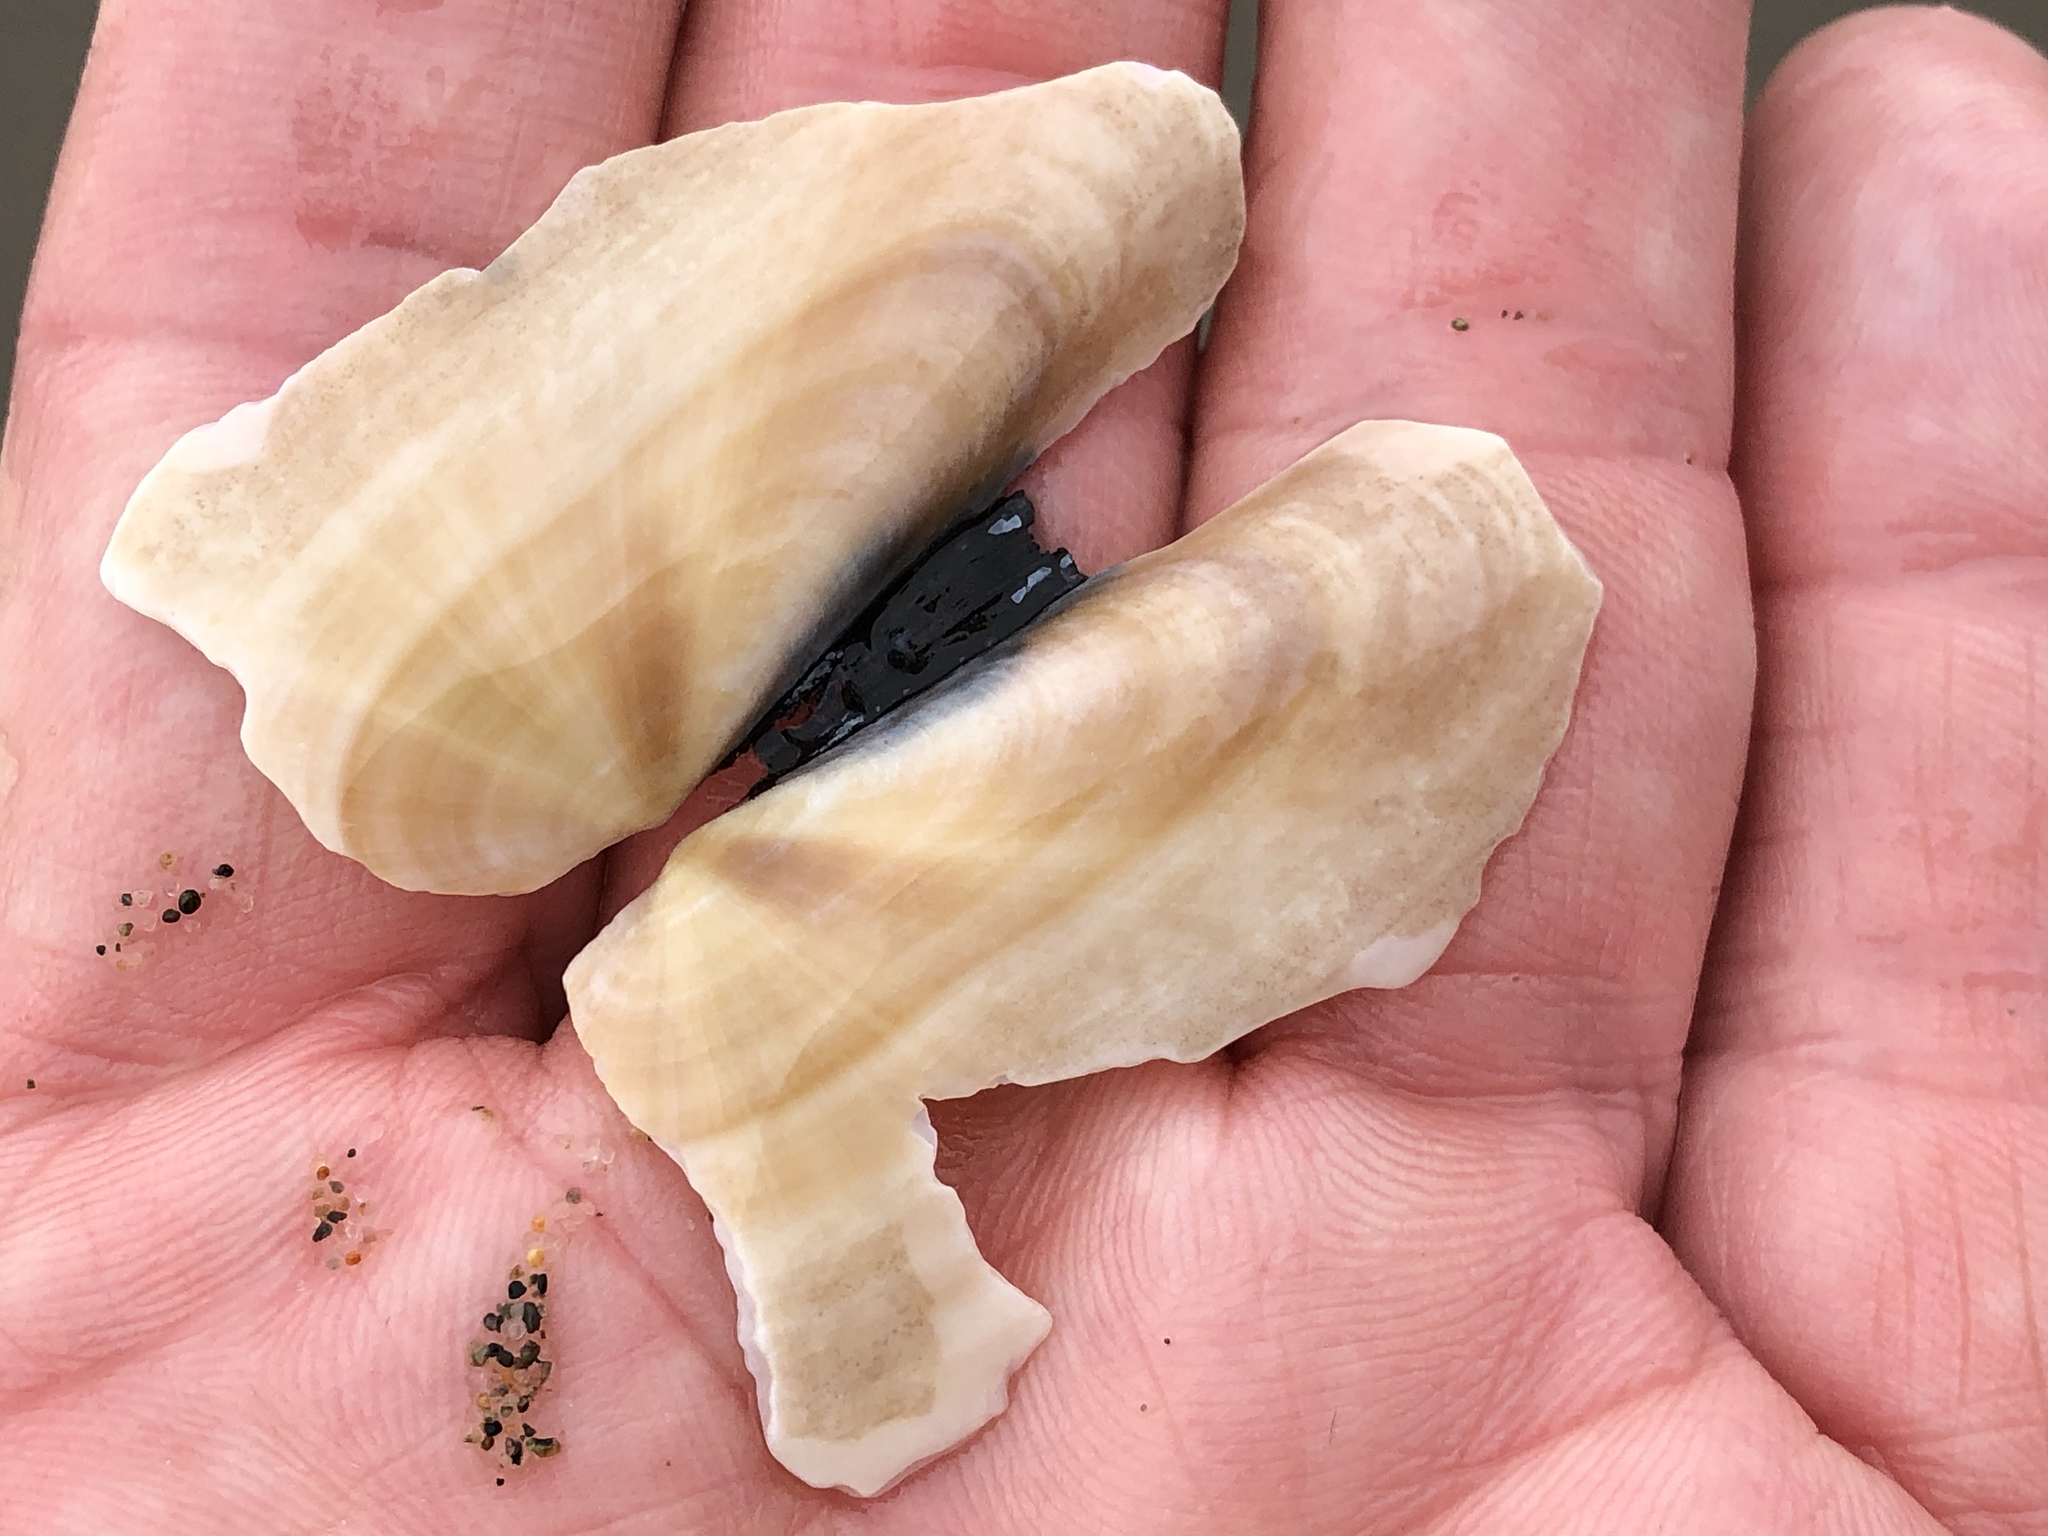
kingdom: Animalia
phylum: Mollusca
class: Bivalvia
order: Adapedonta
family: Pharidae
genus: Siliqua
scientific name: Siliqua patula
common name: Pacific razor clam
